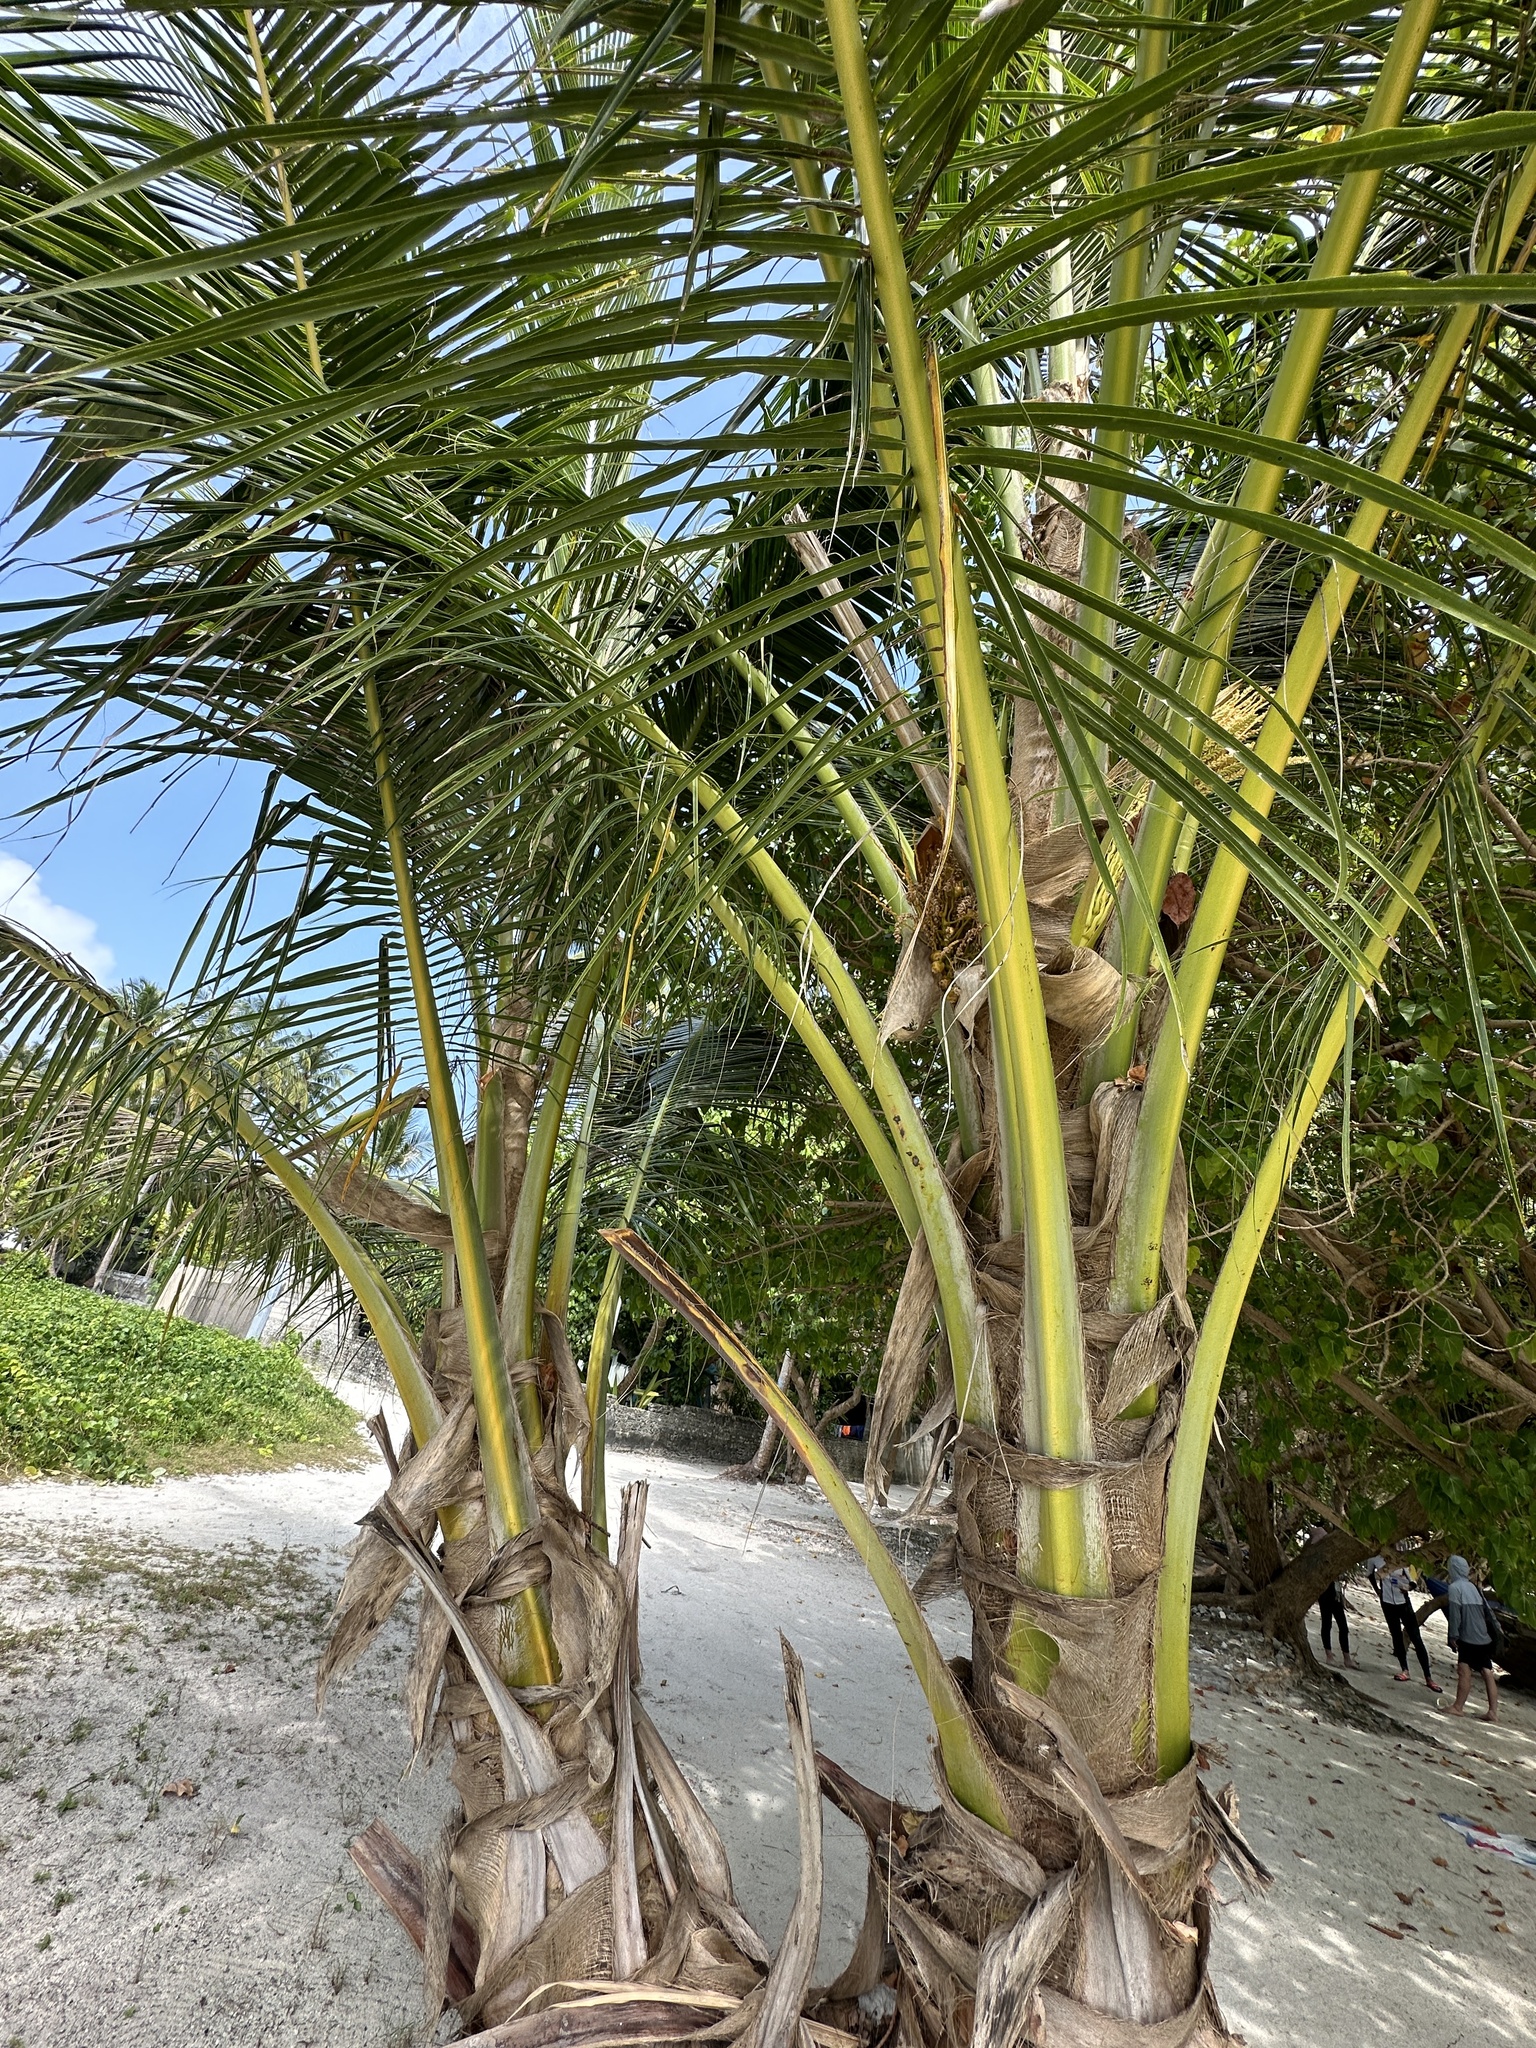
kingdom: Plantae
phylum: Tracheophyta
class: Liliopsida
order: Arecales
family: Arecaceae
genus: Cocos
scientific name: Cocos nucifera
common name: Coconut palm
